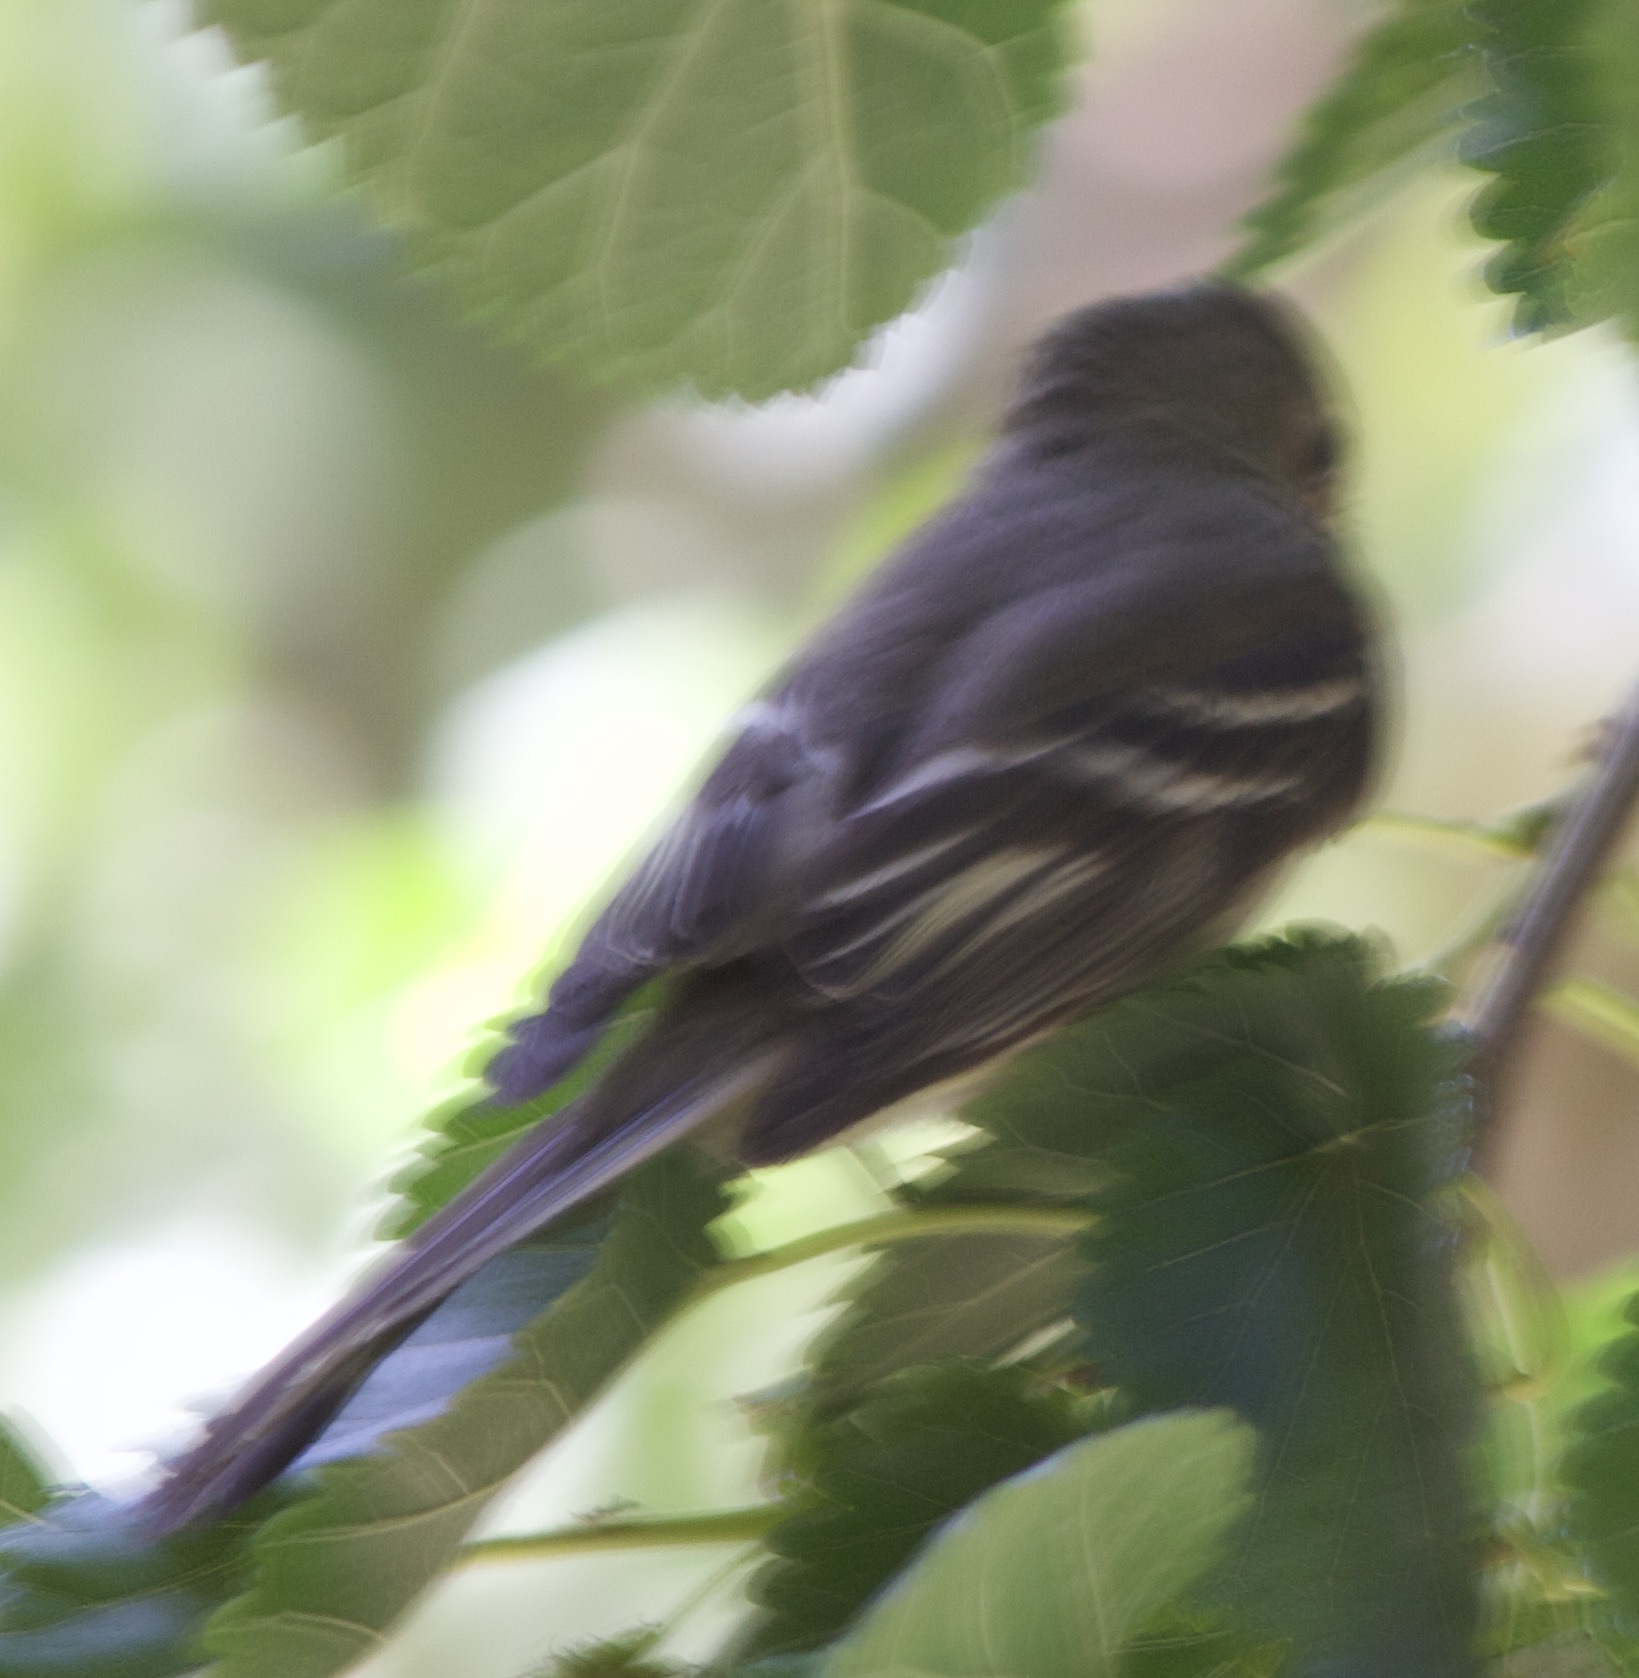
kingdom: Animalia
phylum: Chordata
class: Aves
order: Passeriformes
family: Tyrannidae
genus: Elaenia
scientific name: Elaenia albiceps
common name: White-crested elaenia
